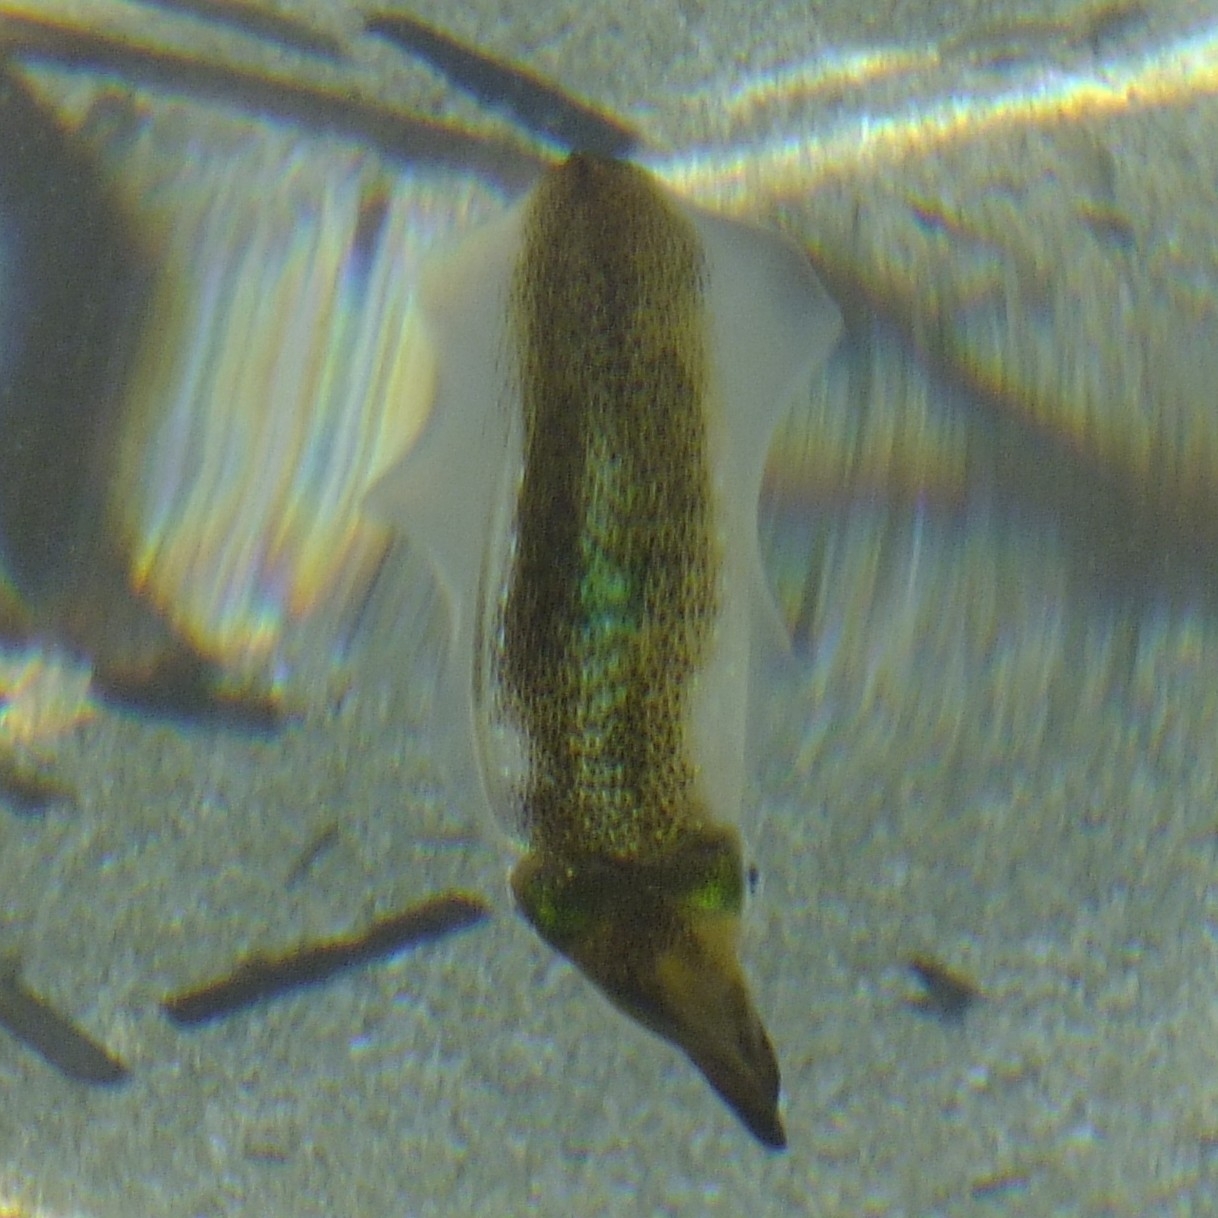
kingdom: Animalia
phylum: Mollusca
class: Cephalopoda
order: Myopsida
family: Loliginidae
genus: Sepioteuthis
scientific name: Sepioteuthis lessoniana
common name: Bigfin reef squid
